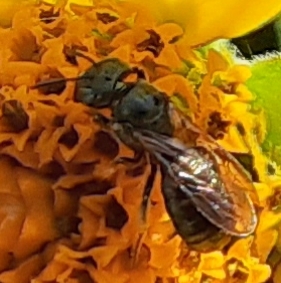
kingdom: Animalia
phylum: Arthropoda
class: Insecta
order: Hymenoptera
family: Apidae
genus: Zadontomerus
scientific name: Zadontomerus
